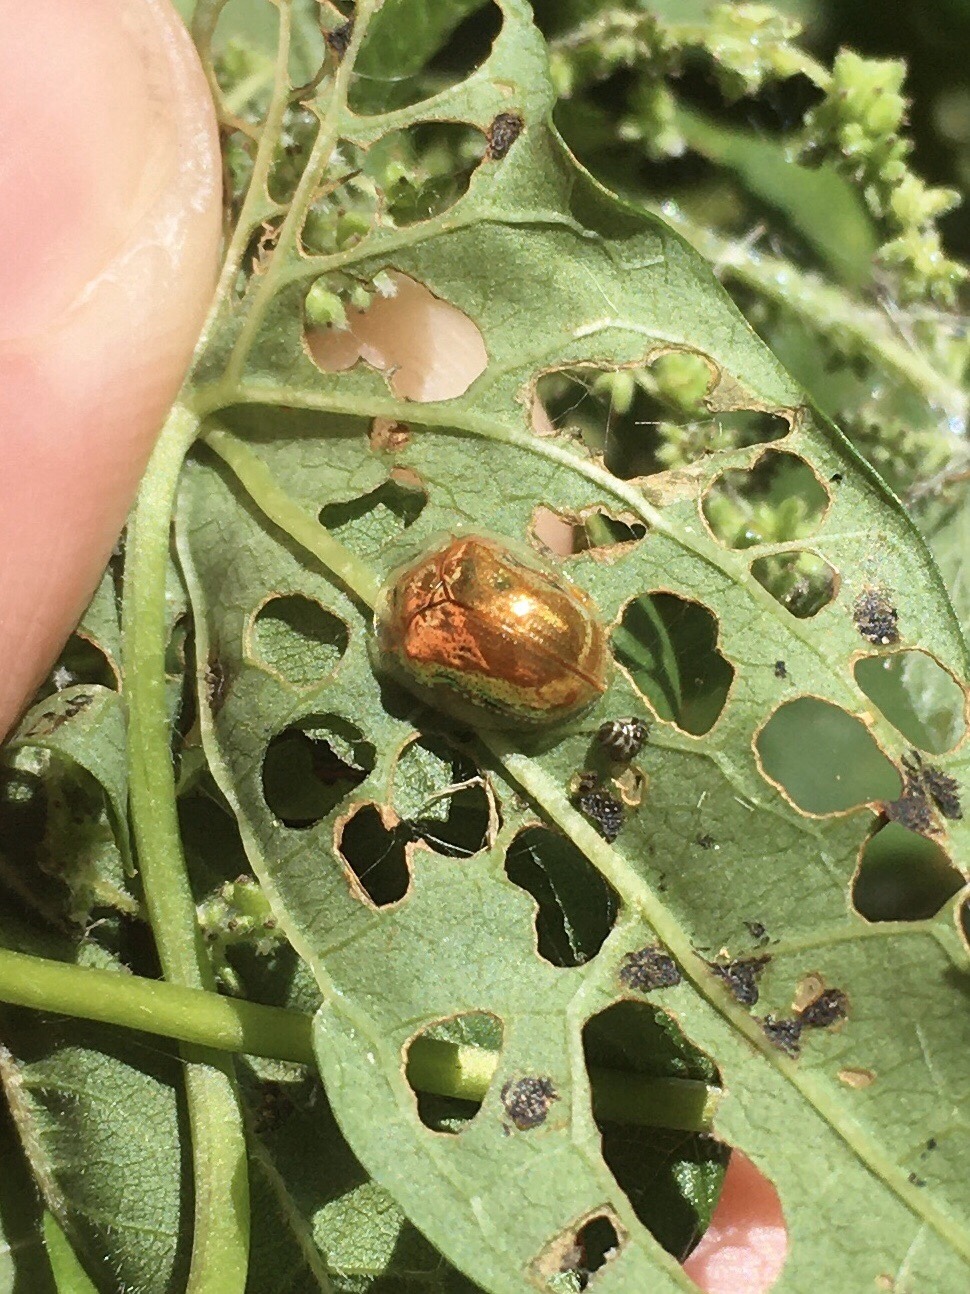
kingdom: Animalia
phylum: Arthropoda
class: Insecta
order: Coleoptera
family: Chrysomelidae
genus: Charidotella
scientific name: Charidotella sexpunctata
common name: Golden tortoise beetle
